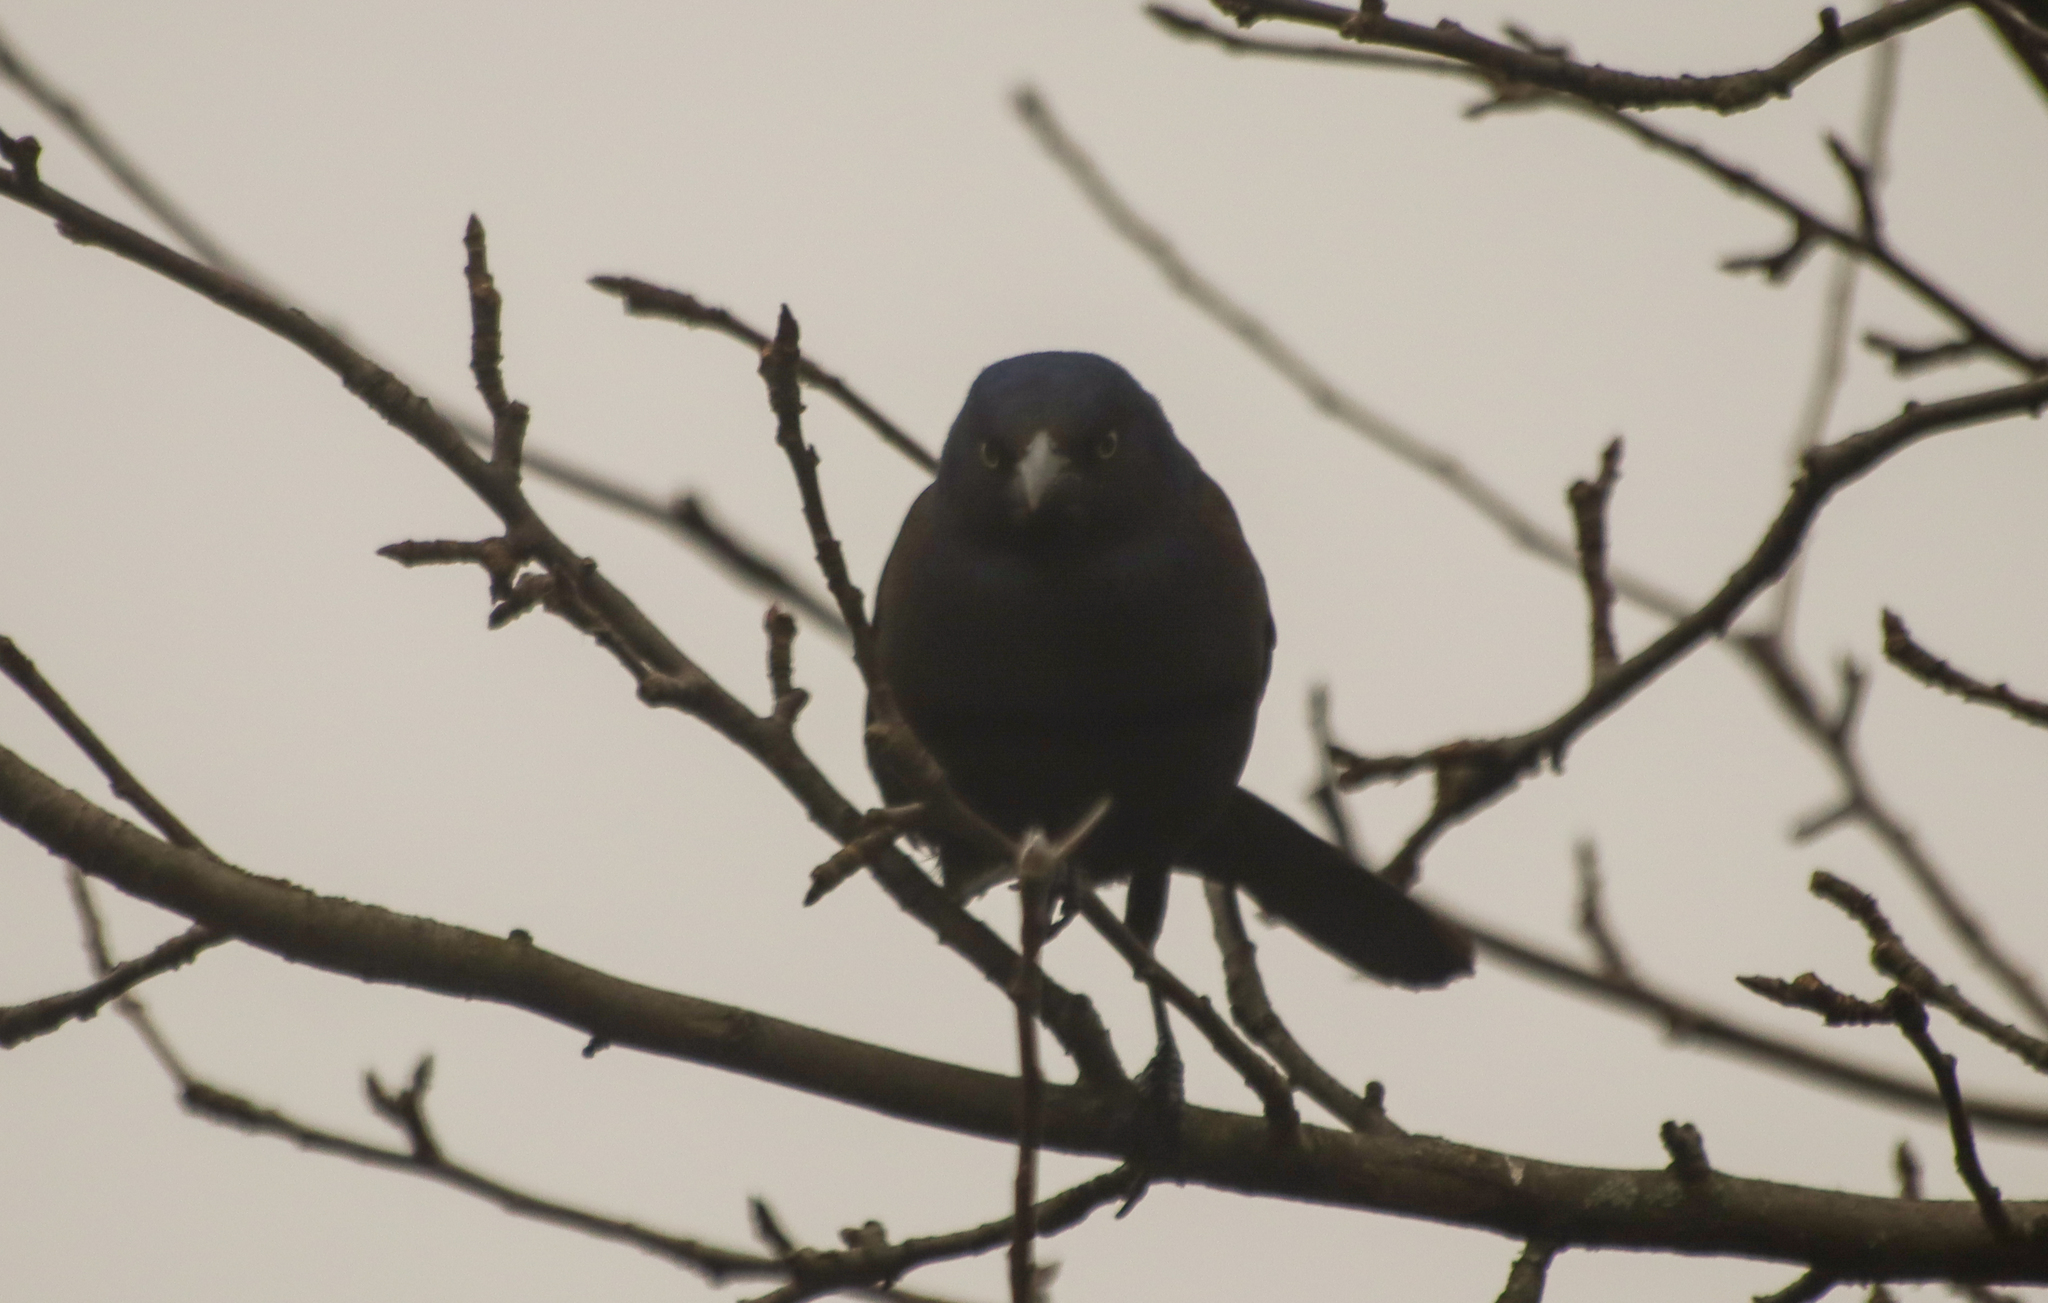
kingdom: Animalia
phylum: Chordata
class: Aves
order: Passeriformes
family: Icteridae
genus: Quiscalus
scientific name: Quiscalus quiscula
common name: Common grackle
